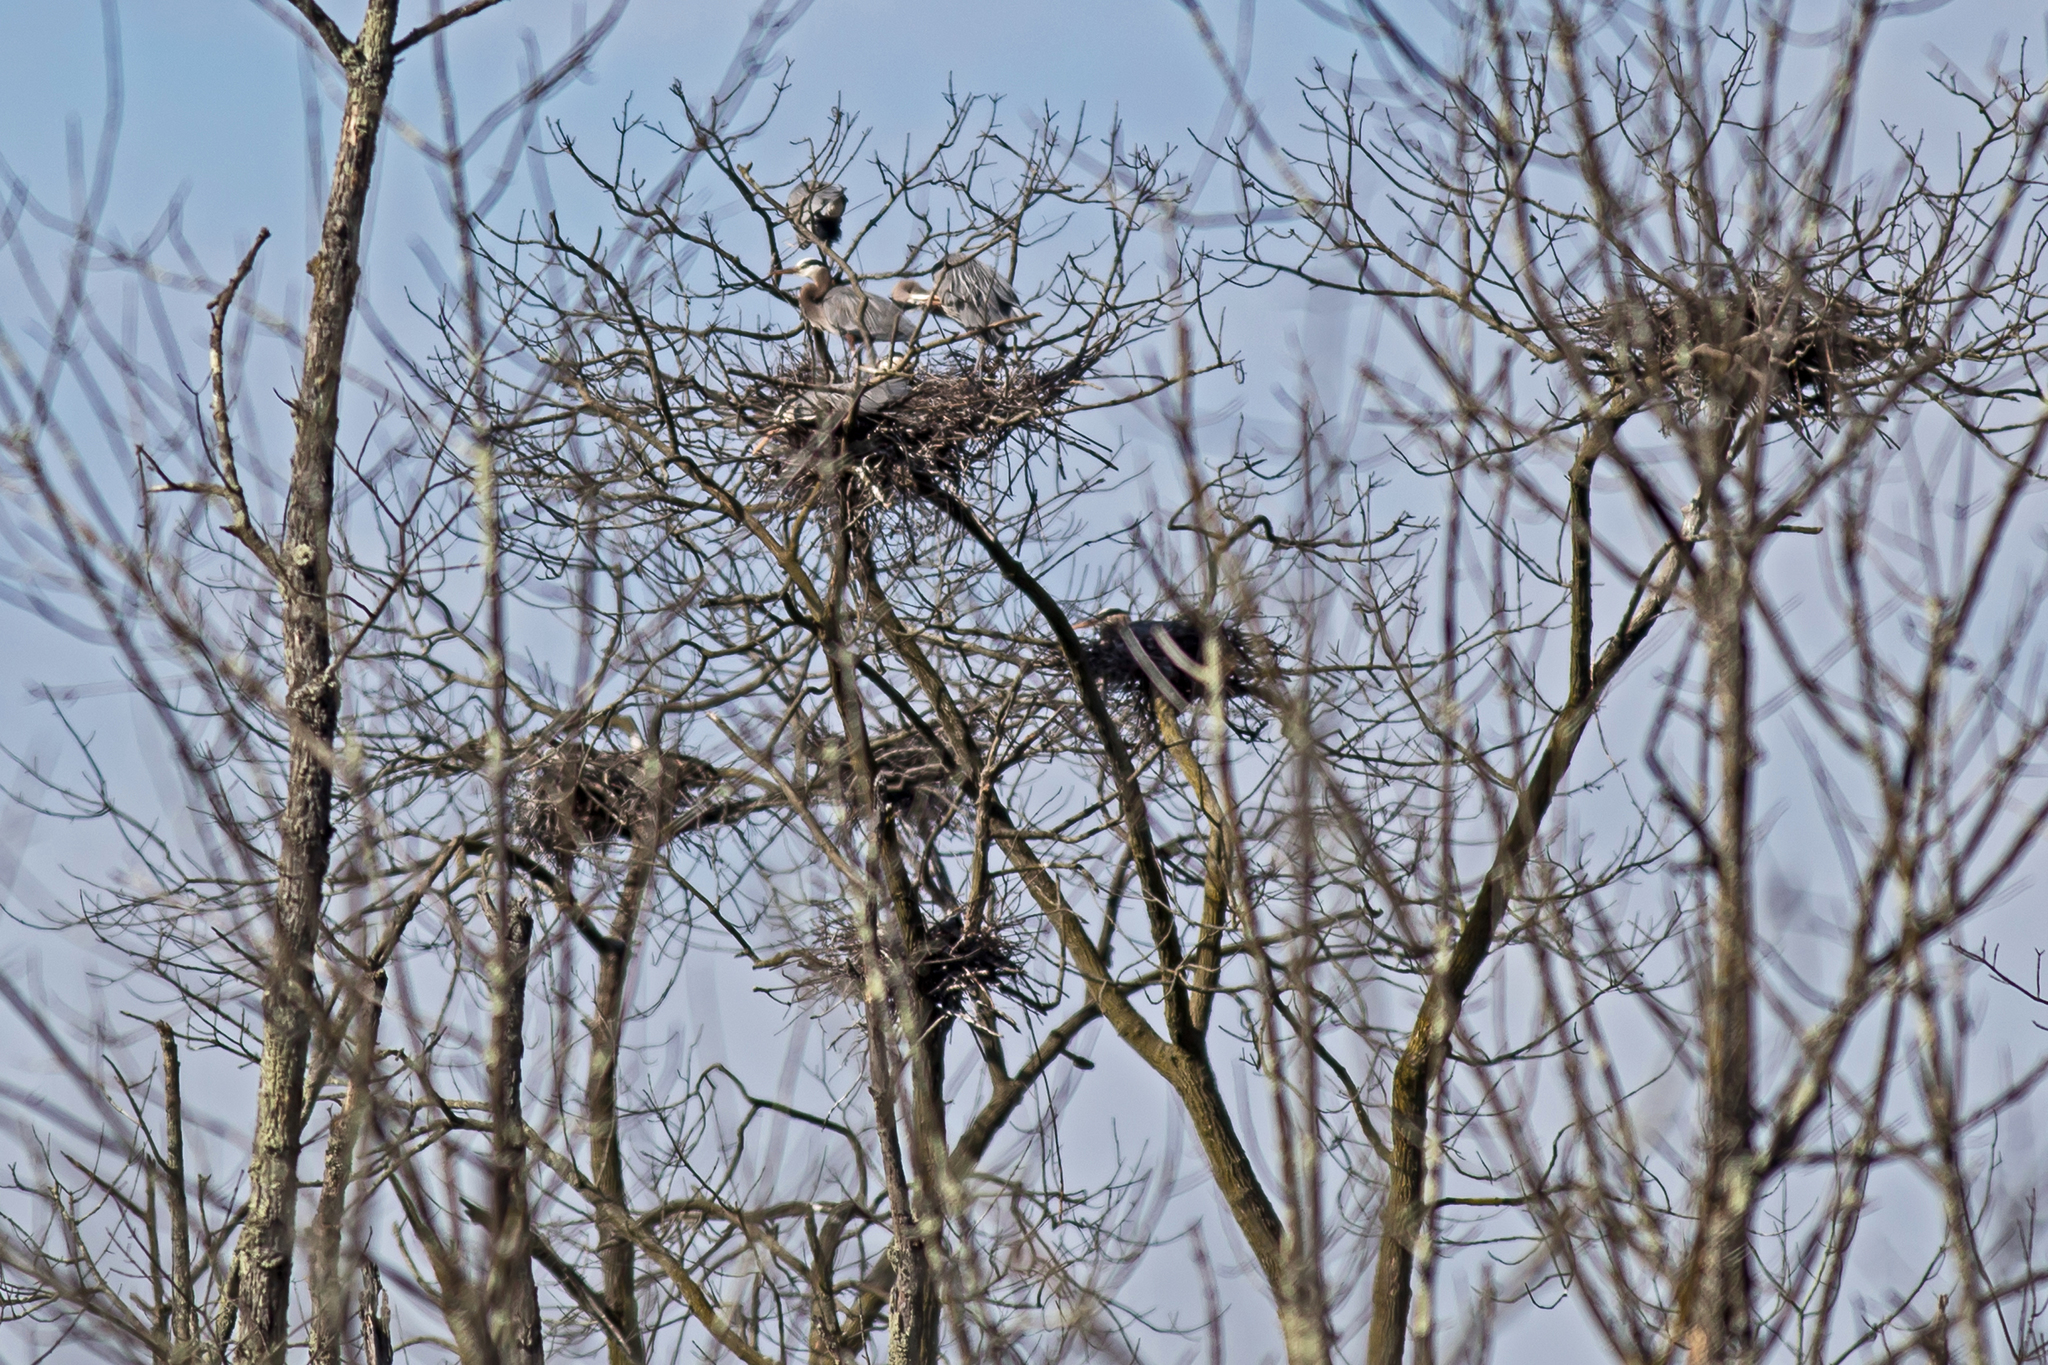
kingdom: Animalia
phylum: Chordata
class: Aves
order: Pelecaniformes
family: Ardeidae
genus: Ardea
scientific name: Ardea herodias
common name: Great blue heron
